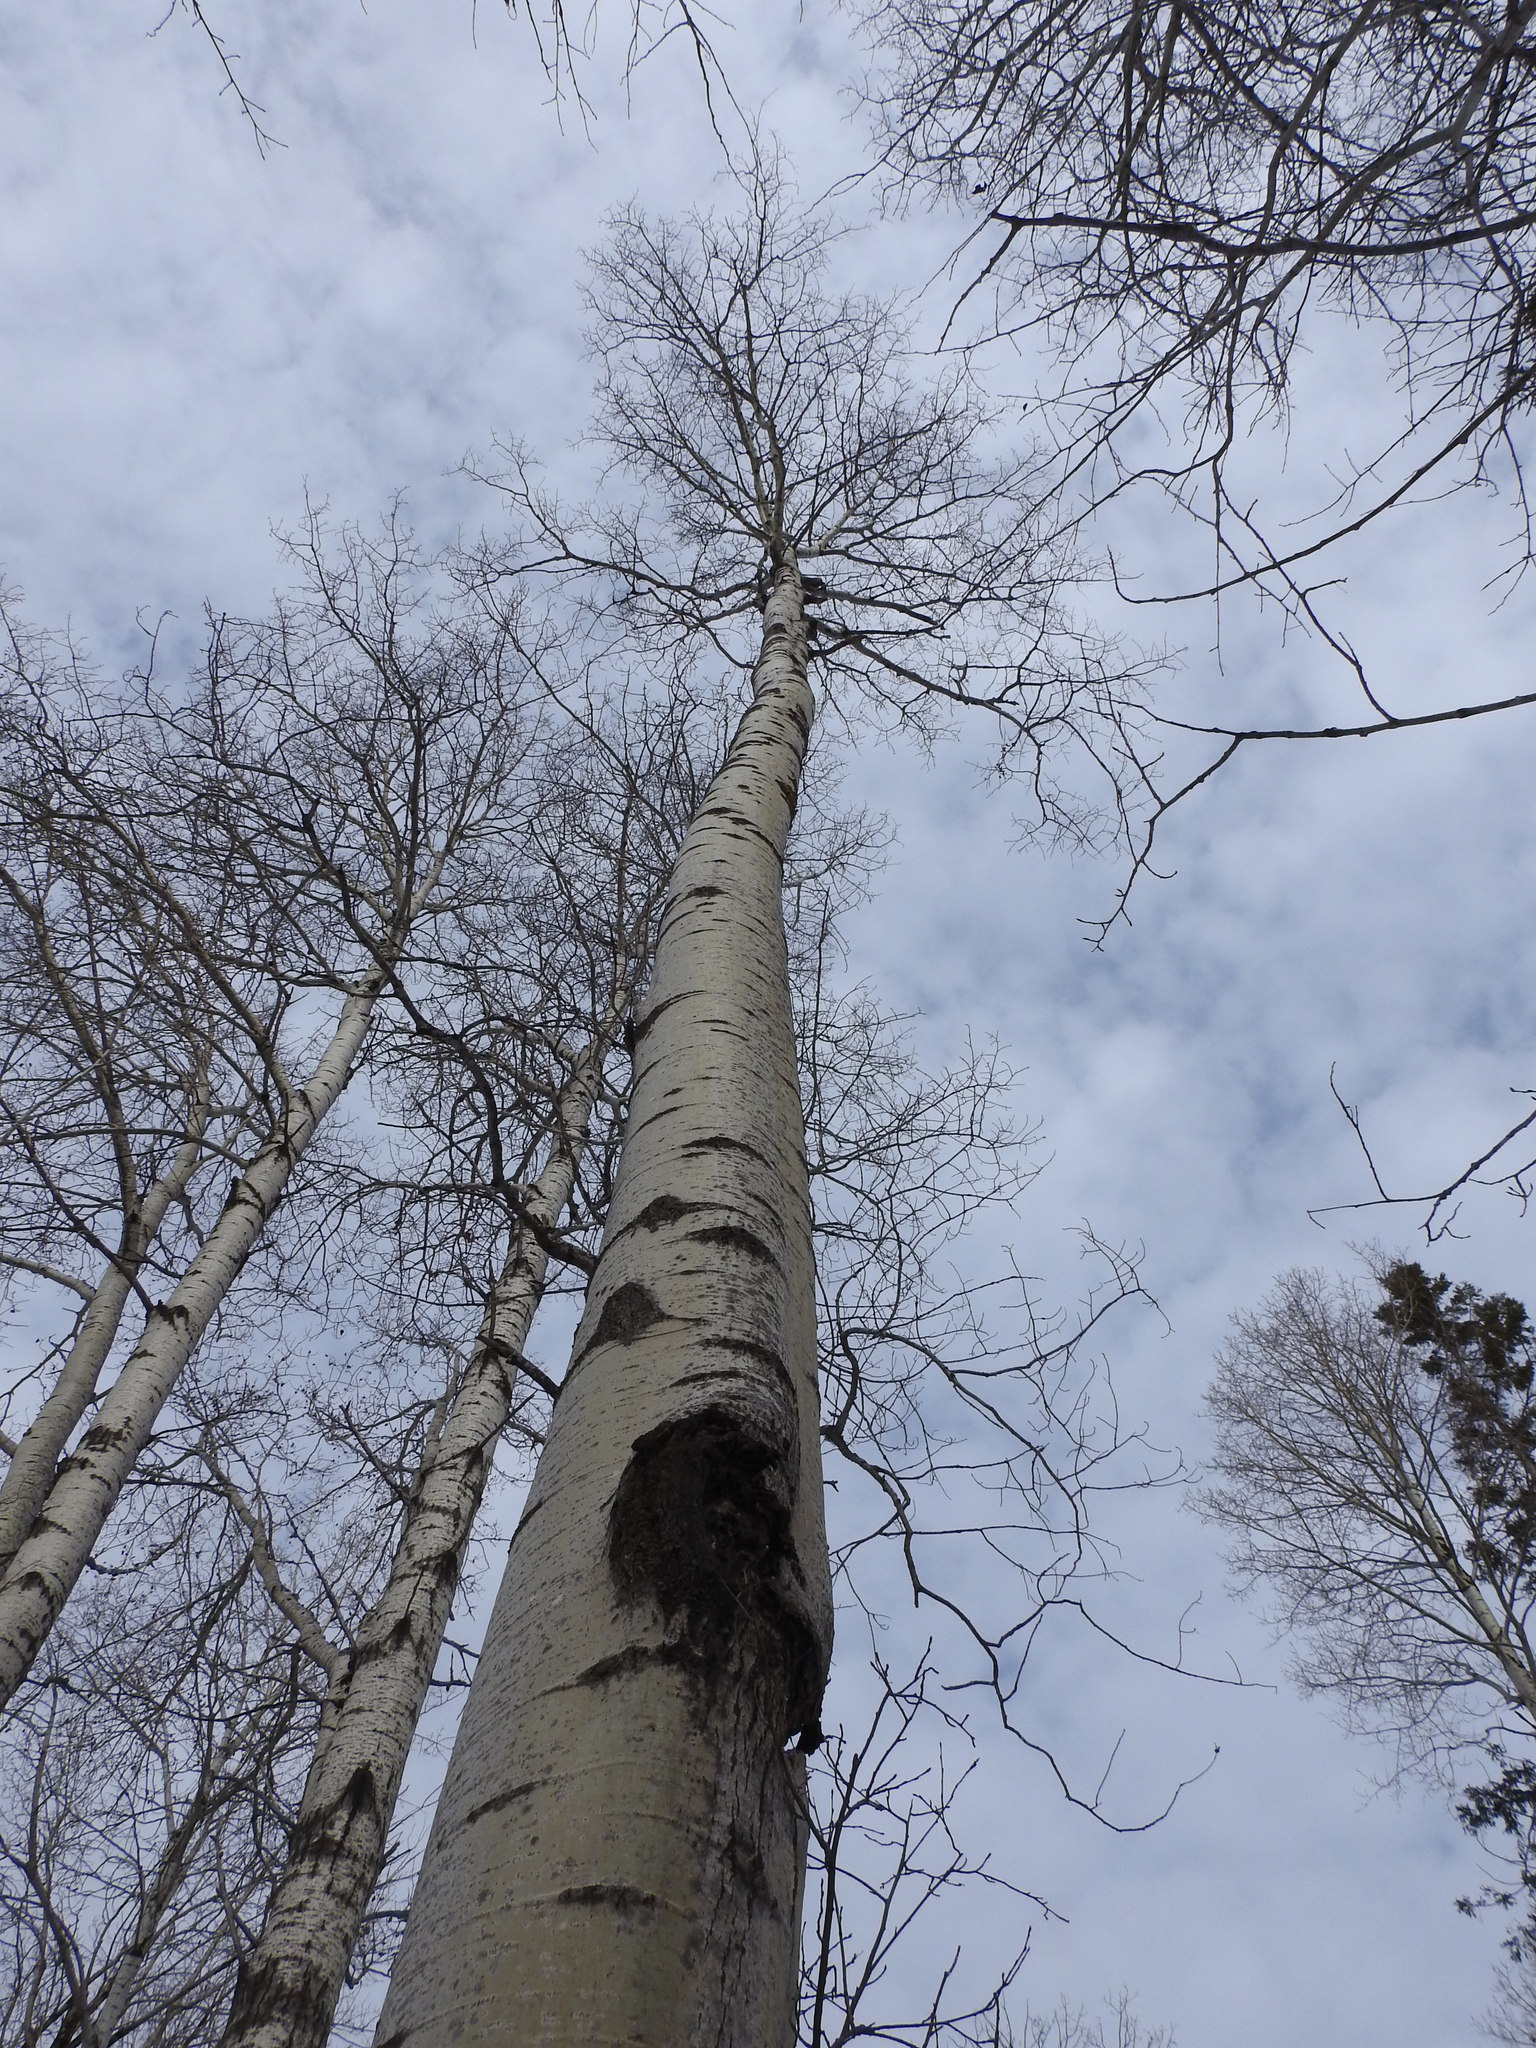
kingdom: Plantae
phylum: Tracheophyta
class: Magnoliopsida
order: Malpighiales
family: Salicaceae
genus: Populus
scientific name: Populus tremuloides
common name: Quaking aspen
